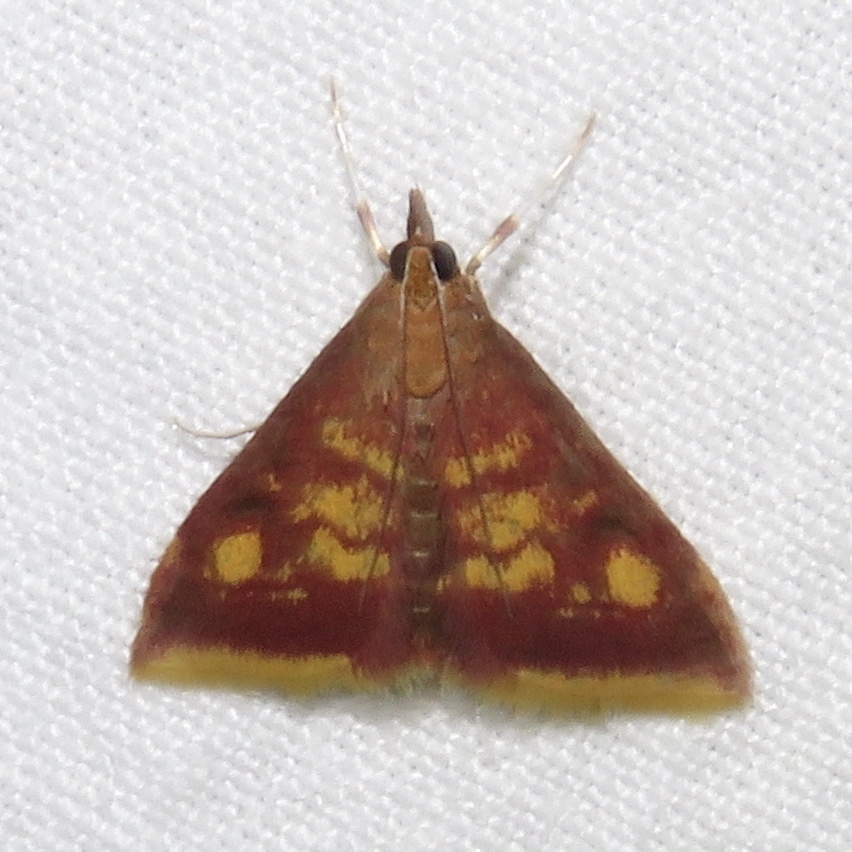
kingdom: Animalia
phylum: Arthropoda
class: Insecta
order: Lepidoptera
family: Crambidae
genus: Pyrausta
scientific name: Pyrausta acrionalis
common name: Mint-loving pyrausta moth
